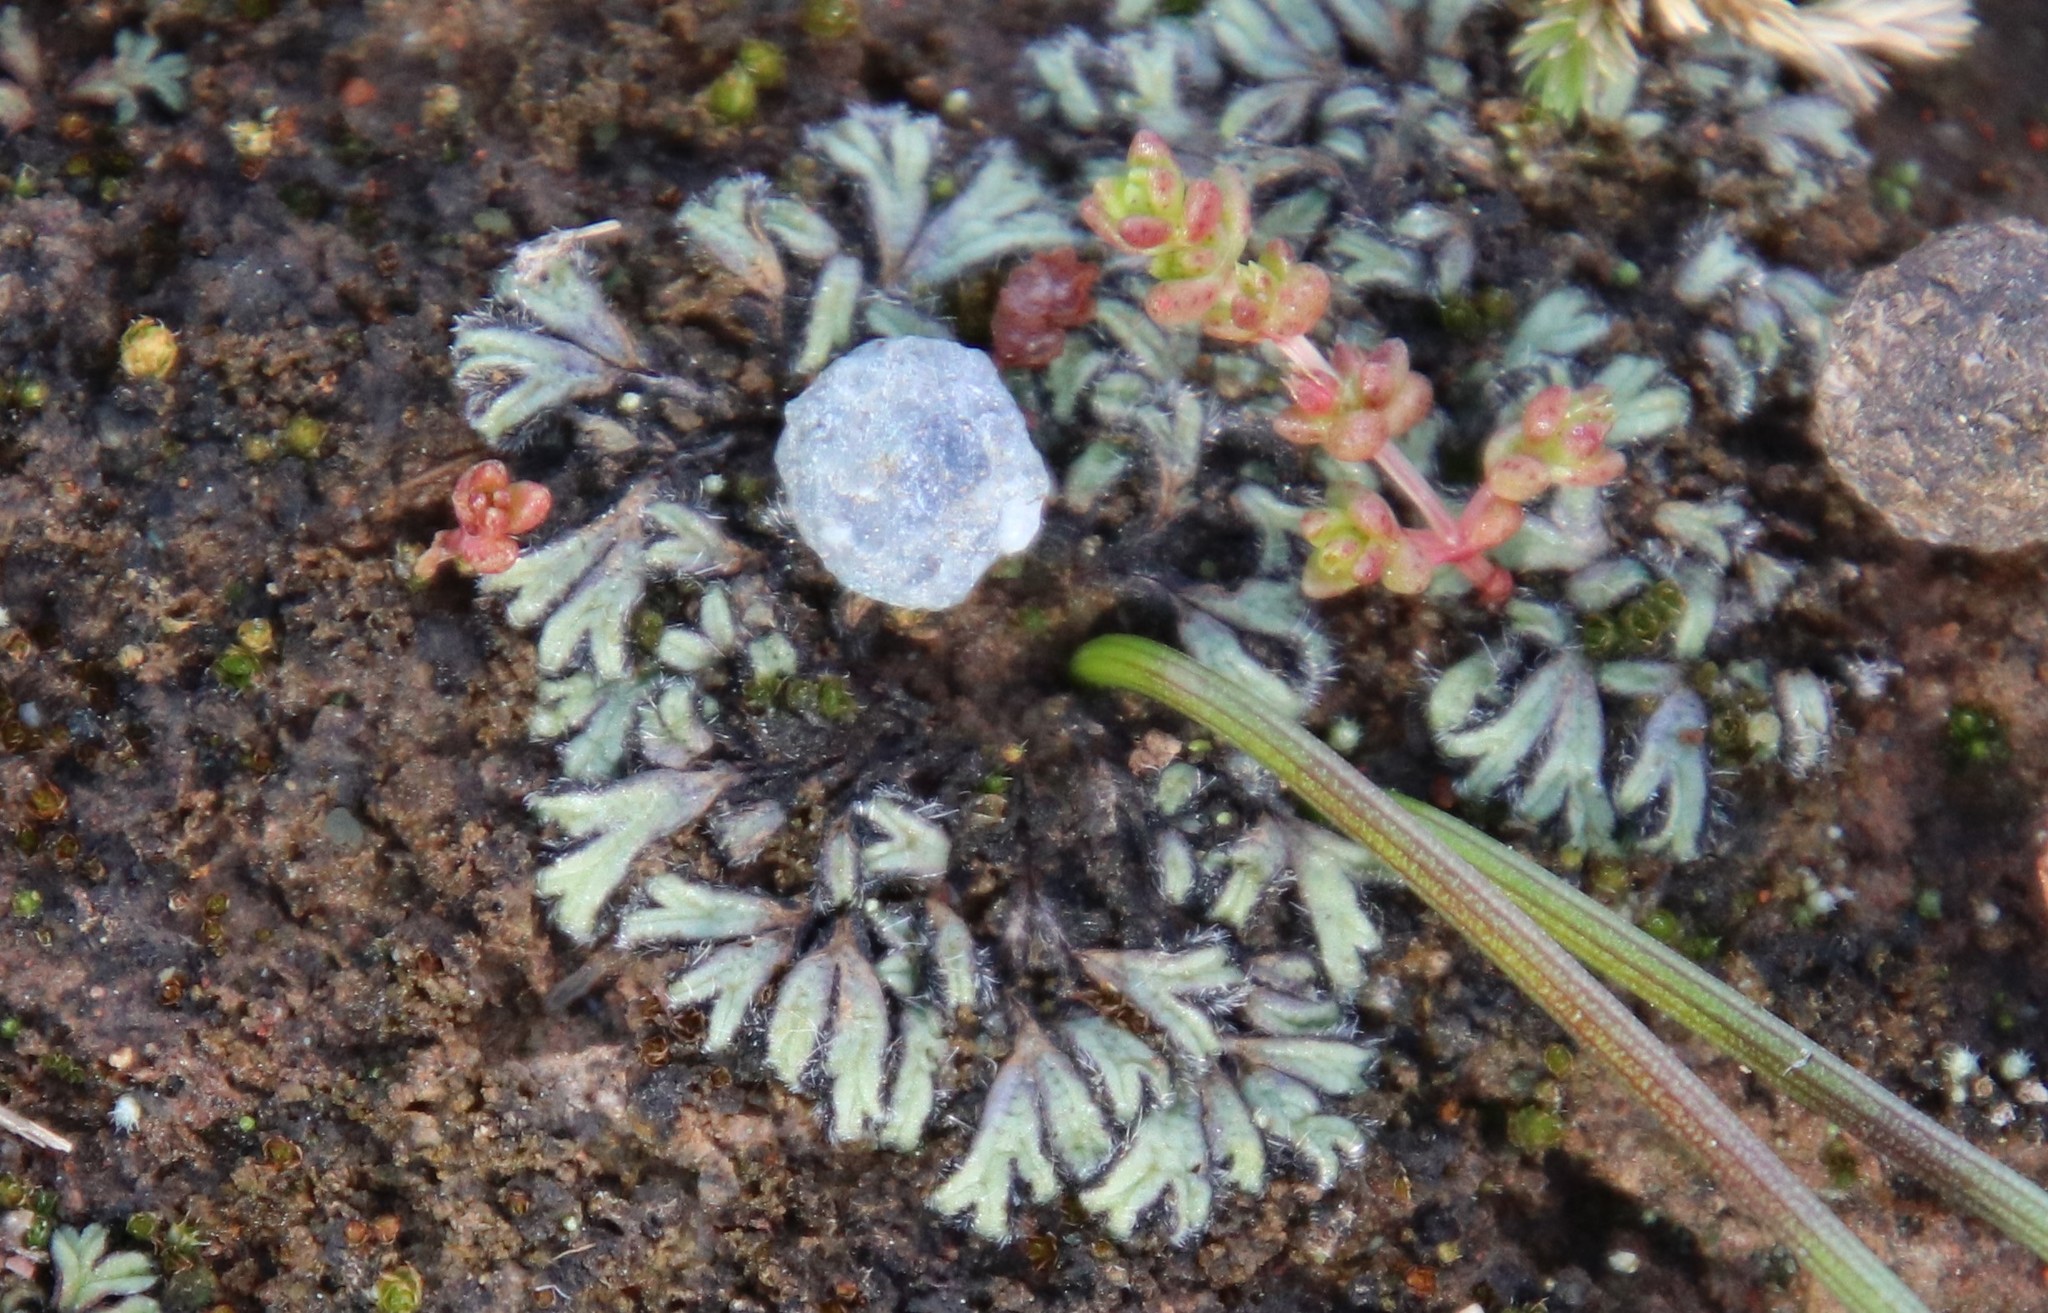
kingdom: Plantae
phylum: Marchantiophyta
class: Marchantiopsida
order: Marchantiales
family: Ricciaceae
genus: Riccia
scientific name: Riccia trichocarpa
